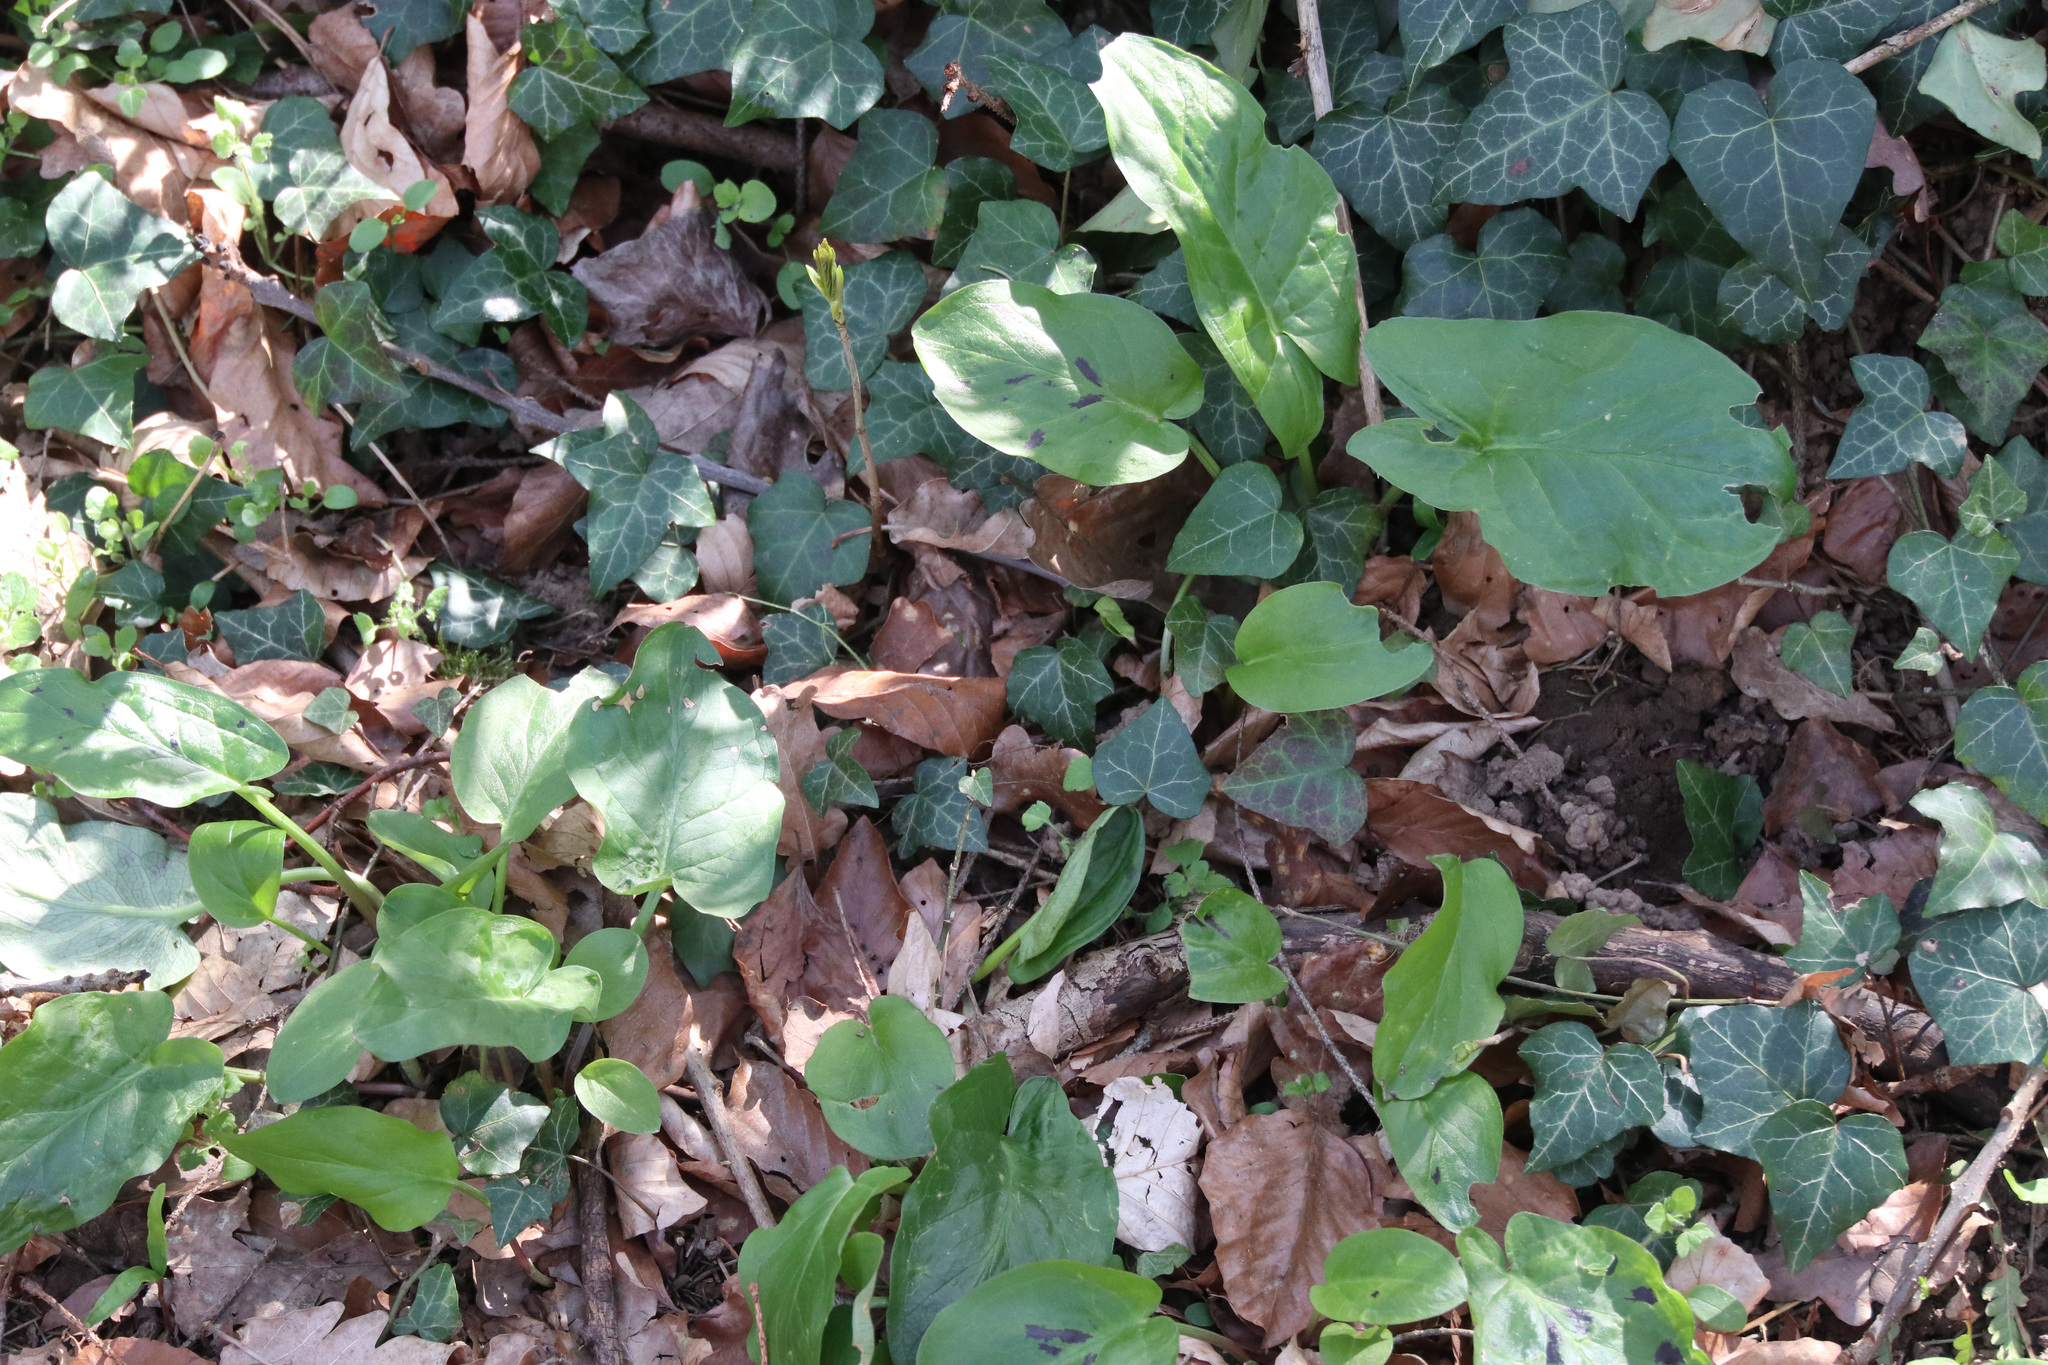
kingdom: Plantae
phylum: Tracheophyta
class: Liliopsida
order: Alismatales
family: Araceae
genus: Arum
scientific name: Arum maculatum
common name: Lords-and-ladies
